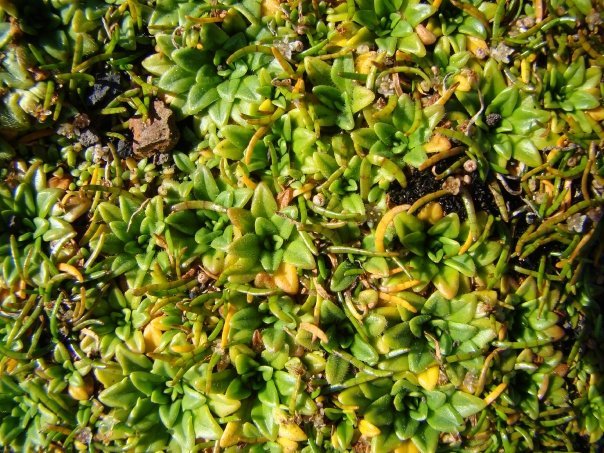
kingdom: Plantae
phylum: Tracheophyta
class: Magnoliopsida
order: Lamiales
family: Plantaginaceae
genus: Plantago
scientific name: Plantago brownii
